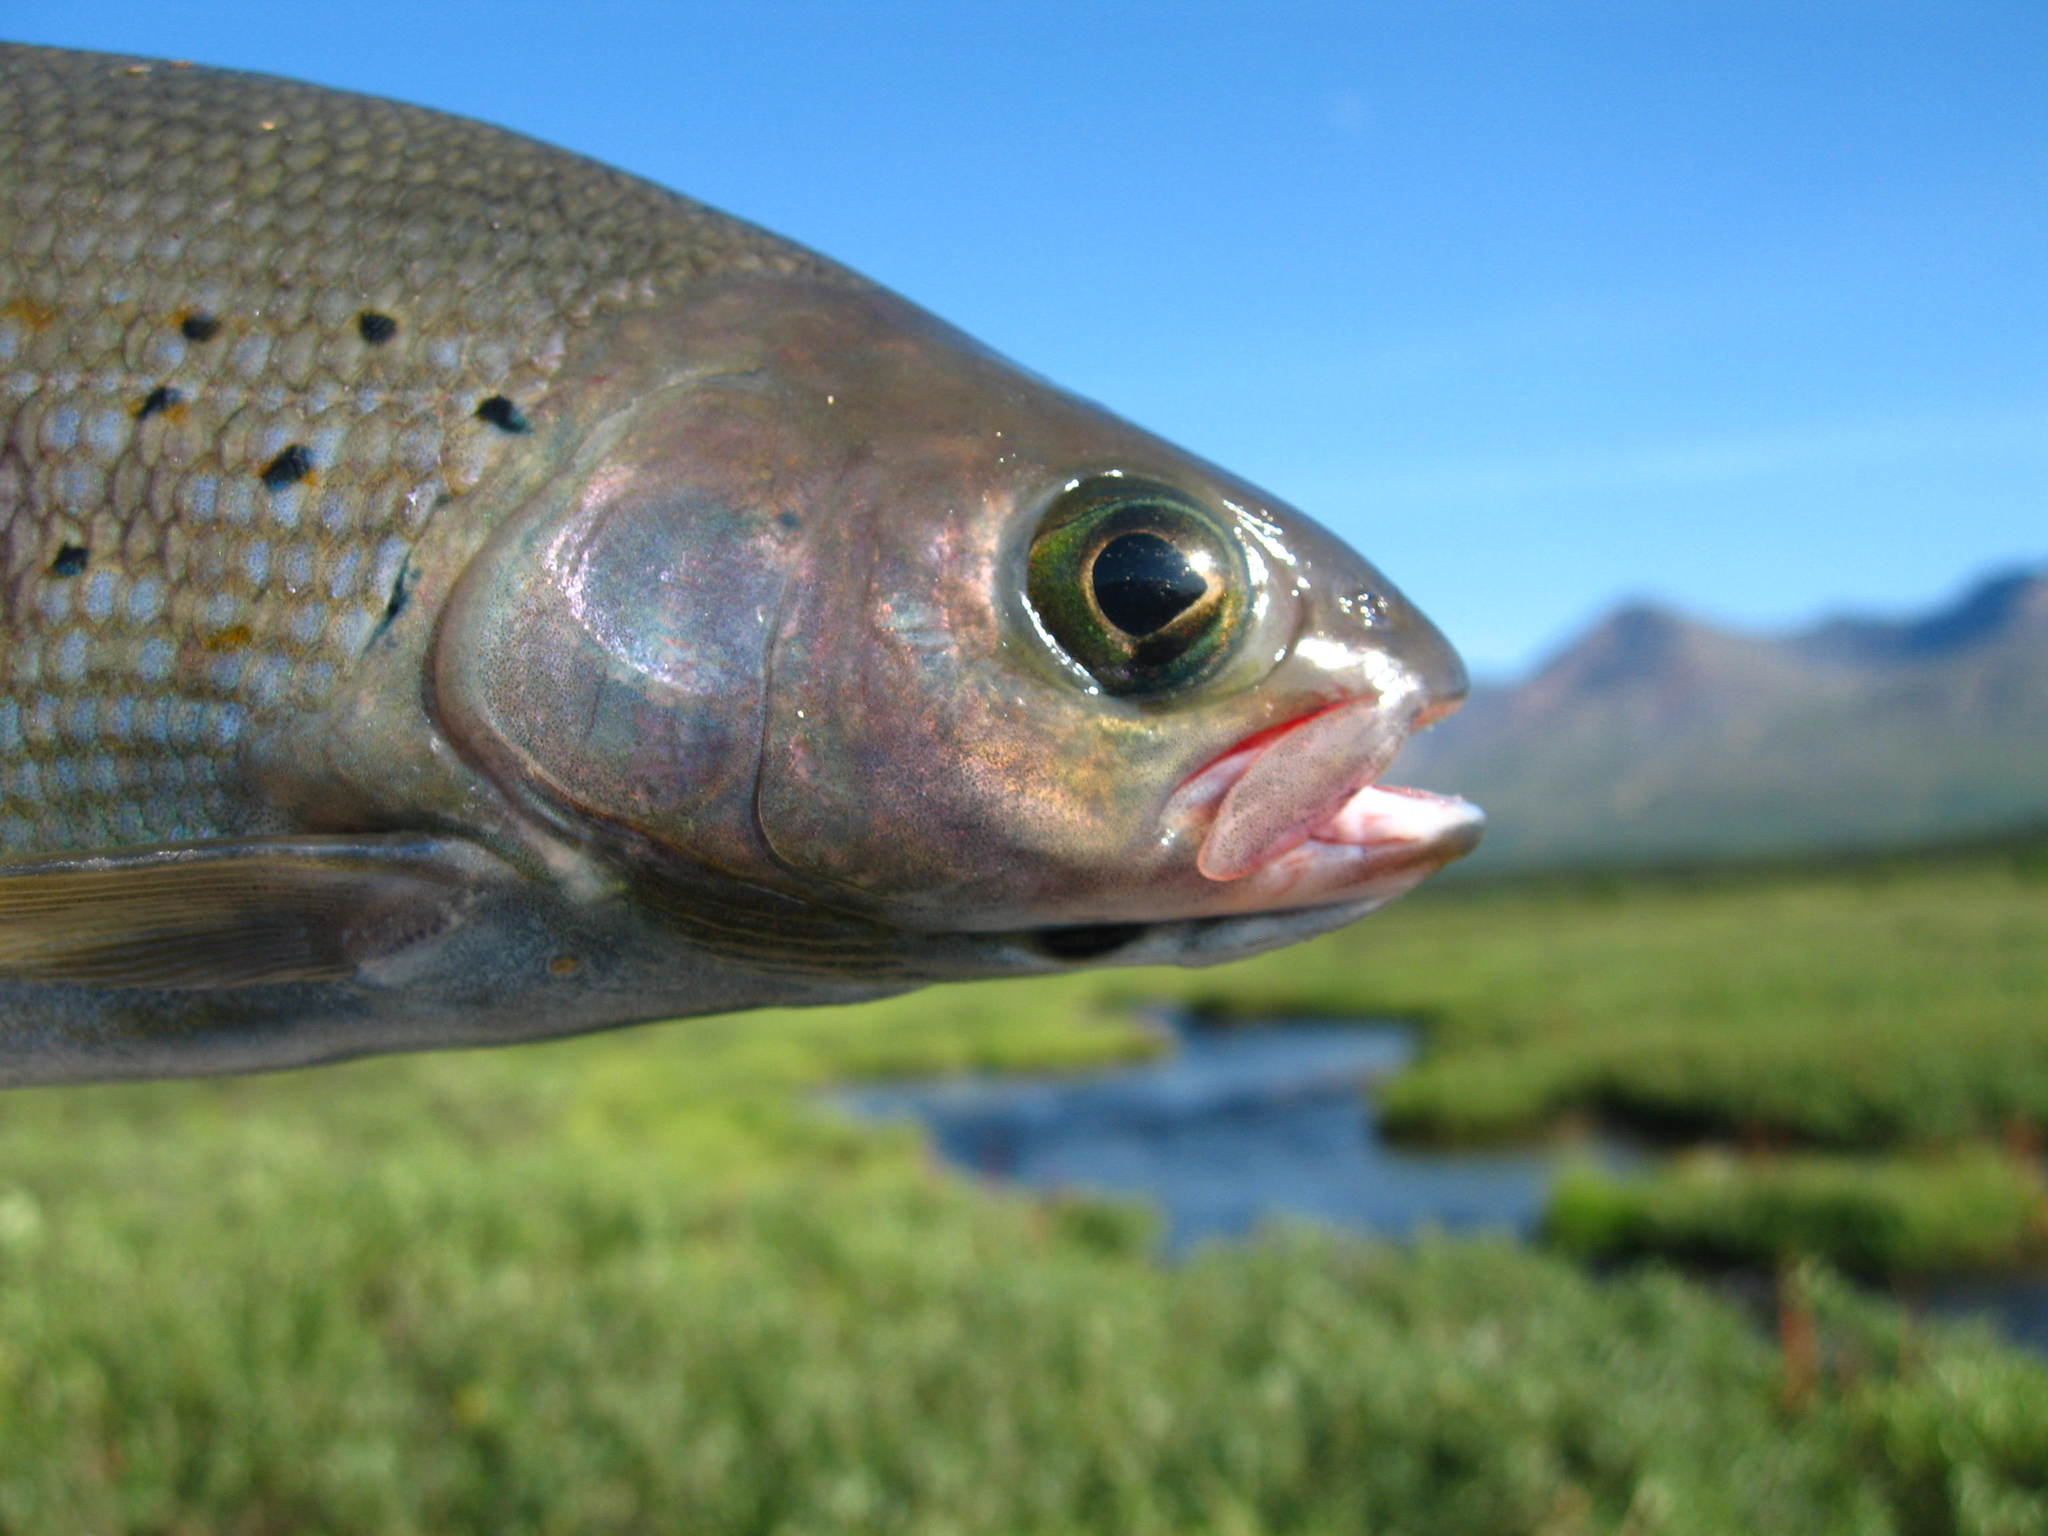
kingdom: Animalia
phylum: Chordata
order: Salmoniformes
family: Salmonidae
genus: Thymallus
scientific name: Thymallus arcticus
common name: Arctic grayling
